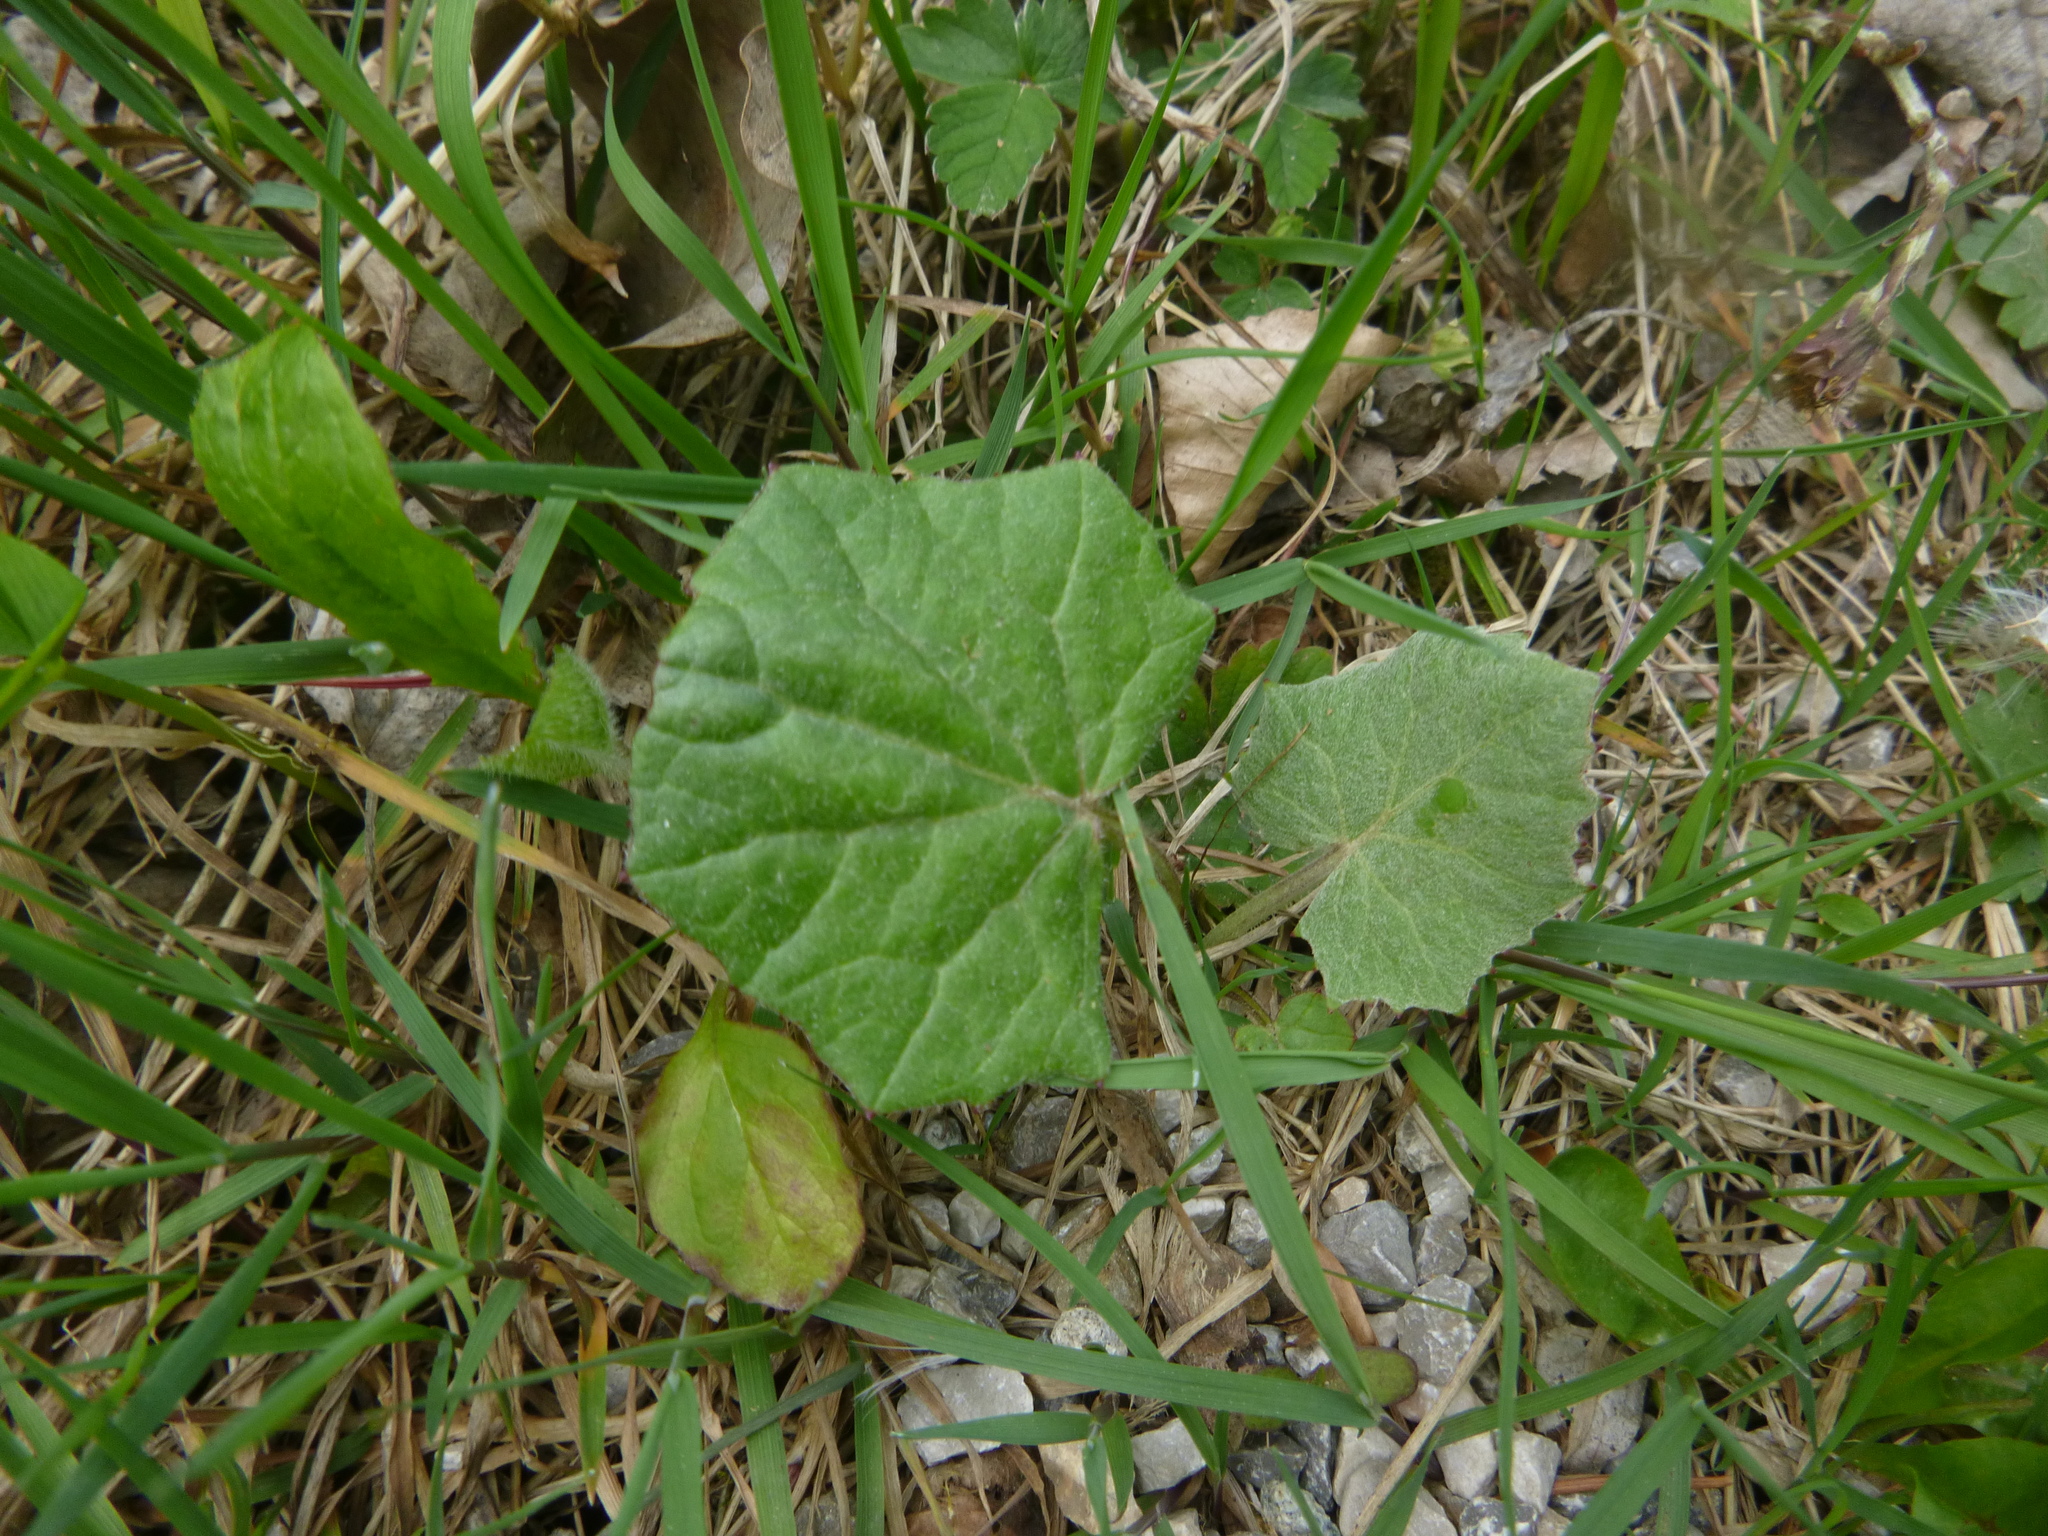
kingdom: Plantae
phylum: Tracheophyta
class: Magnoliopsida
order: Asterales
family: Asteraceae
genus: Tussilago
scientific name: Tussilago farfara
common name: Coltsfoot
